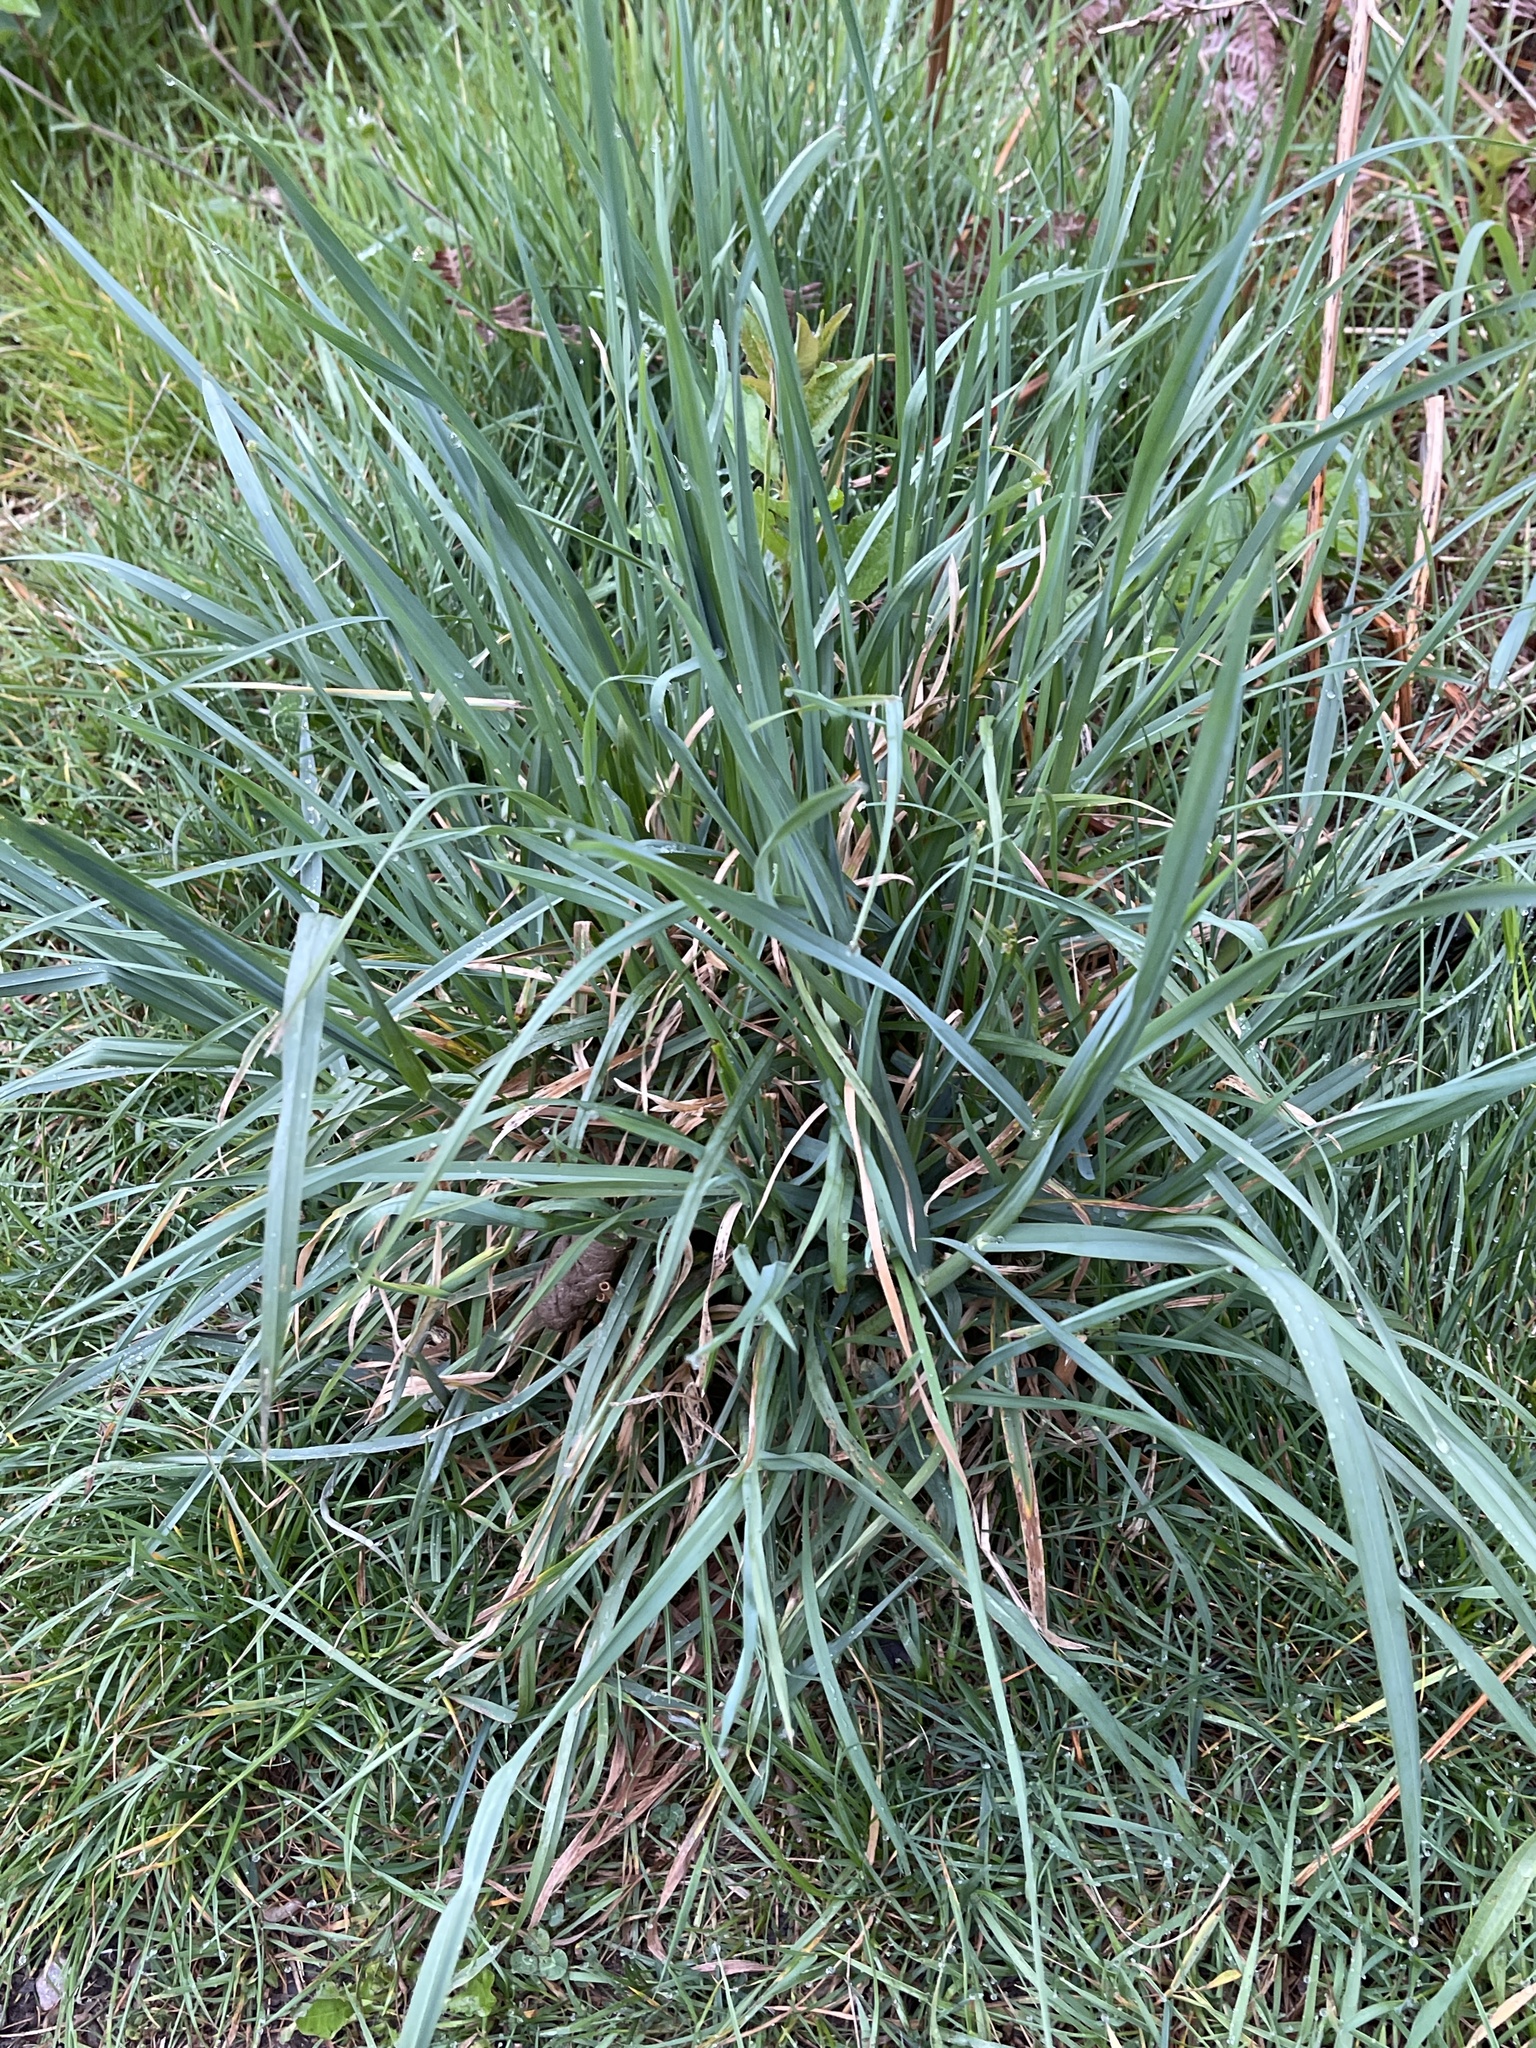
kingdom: Plantae
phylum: Tracheophyta
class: Liliopsida
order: Poales
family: Poaceae
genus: Dactylis
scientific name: Dactylis glomerata
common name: Orchardgrass
